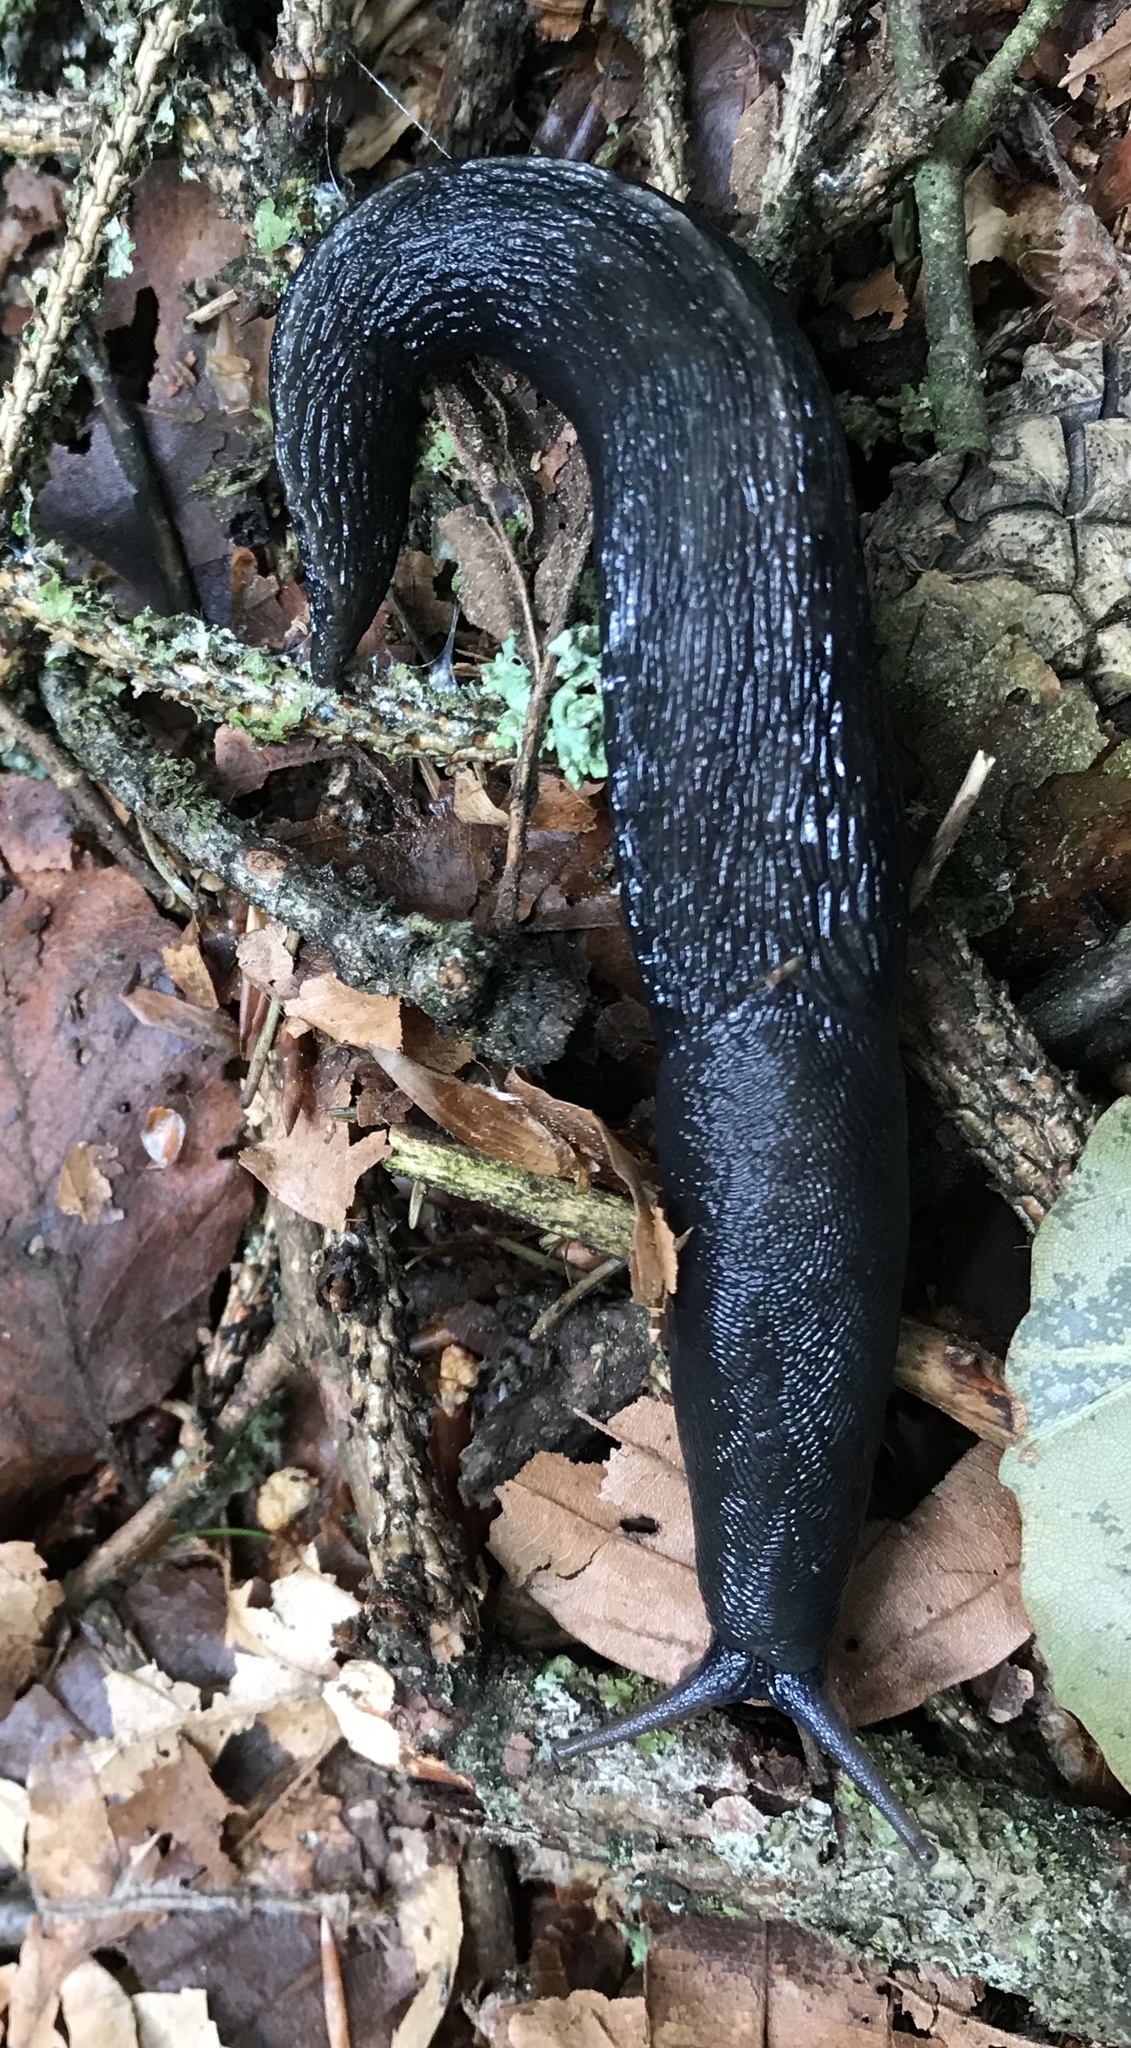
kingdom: Animalia
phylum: Mollusca
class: Gastropoda
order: Stylommatophora
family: Limacidae
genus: Limax
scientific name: Limax cinereoniger
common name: Ash-black slug
